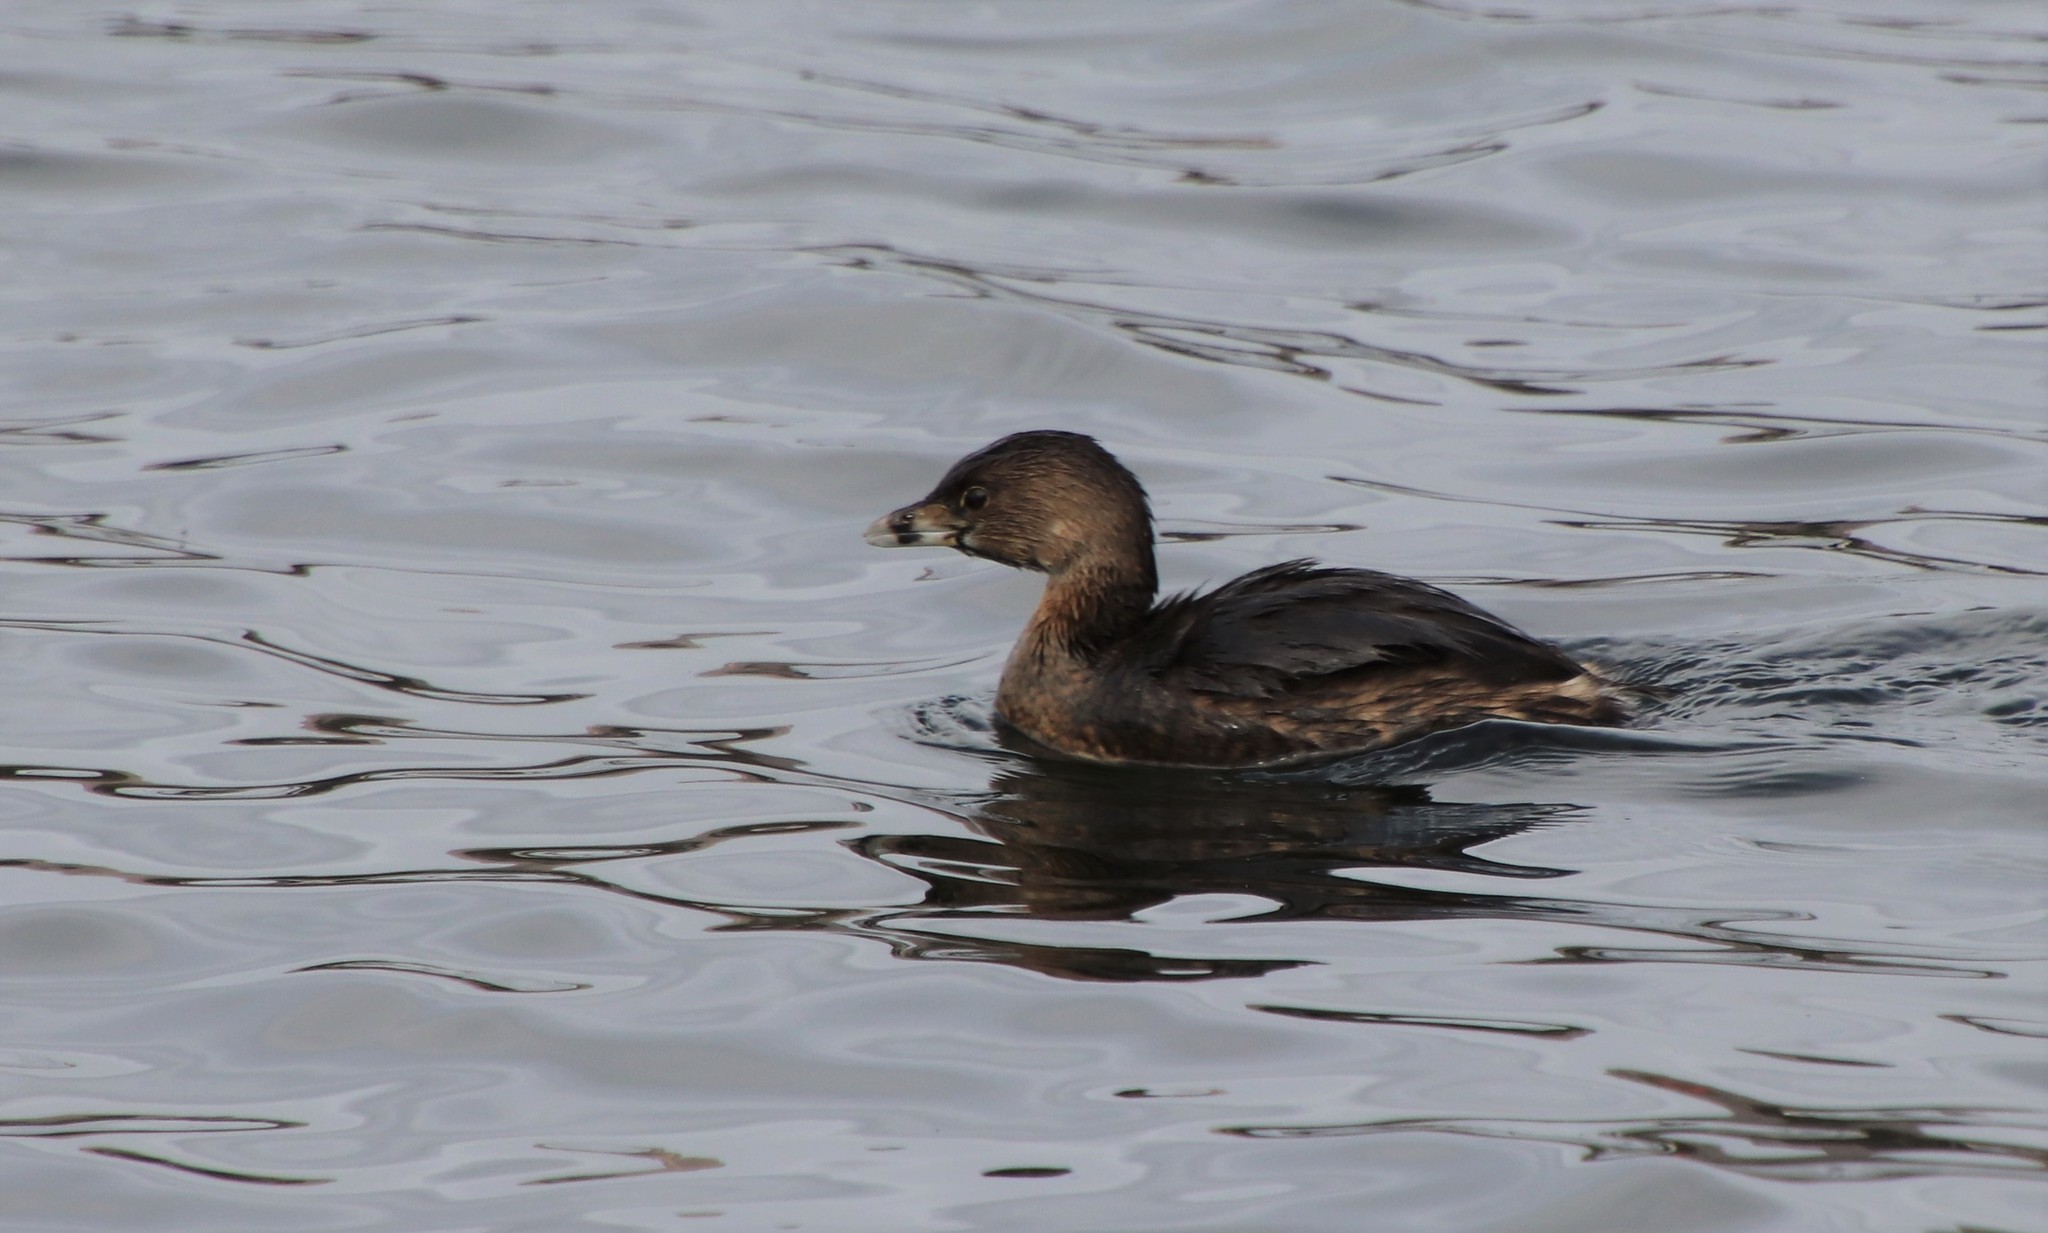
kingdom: Animalia
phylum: Chordata
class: Aves
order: Podicipediformes
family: Podicipedidae
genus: Podilymbus
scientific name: Podilymbus podiceps
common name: Pied-billed grebe
